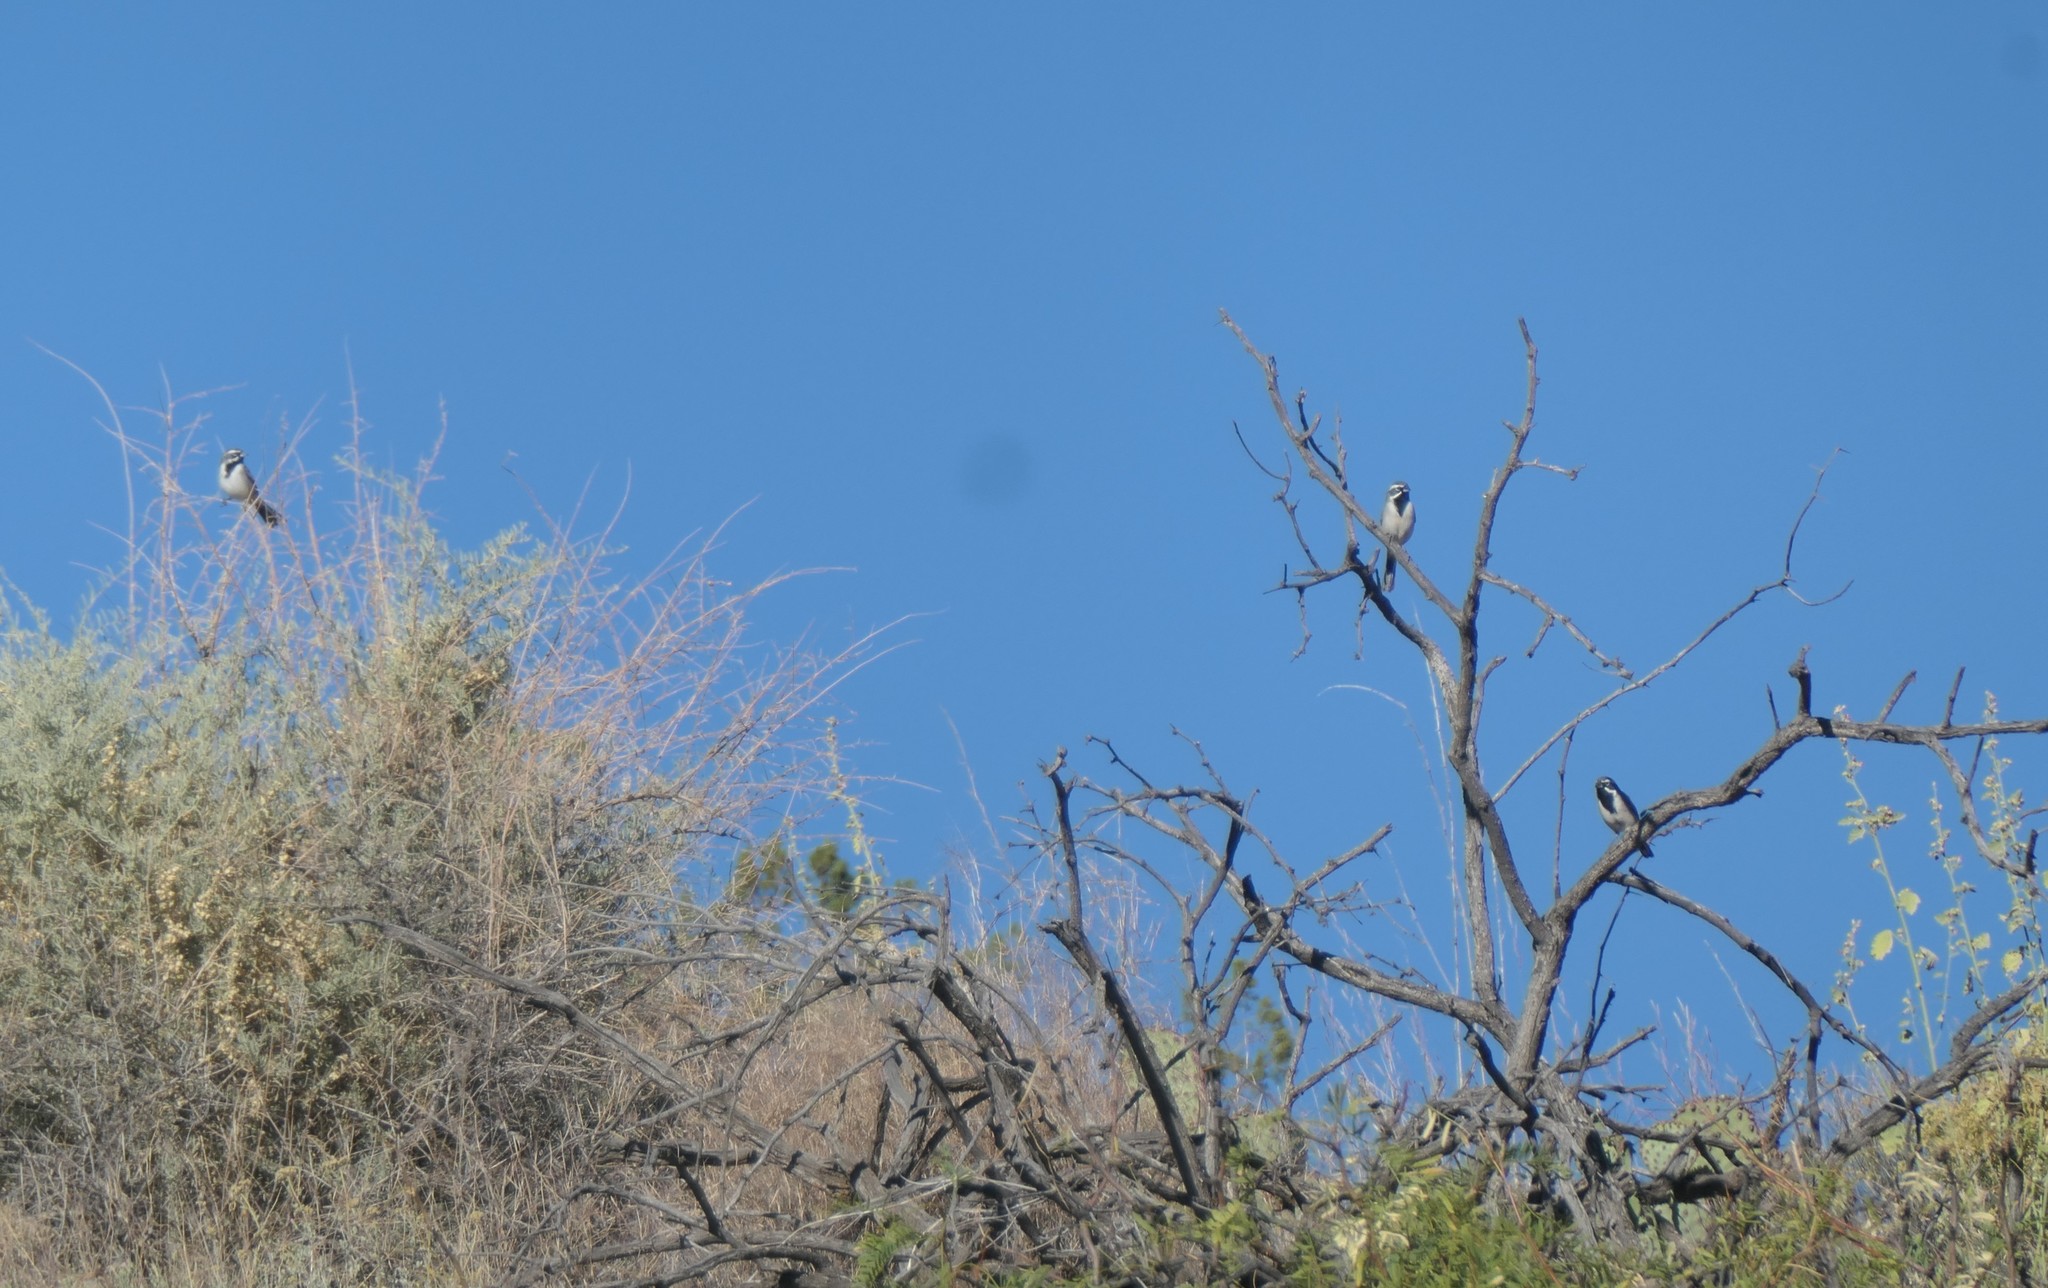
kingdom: Animalia
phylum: Chordata
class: Aves
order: Passeriformes
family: Passerellidae
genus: Amphispiza
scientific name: Amphispiza bilineata
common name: Black-throated sparrow
